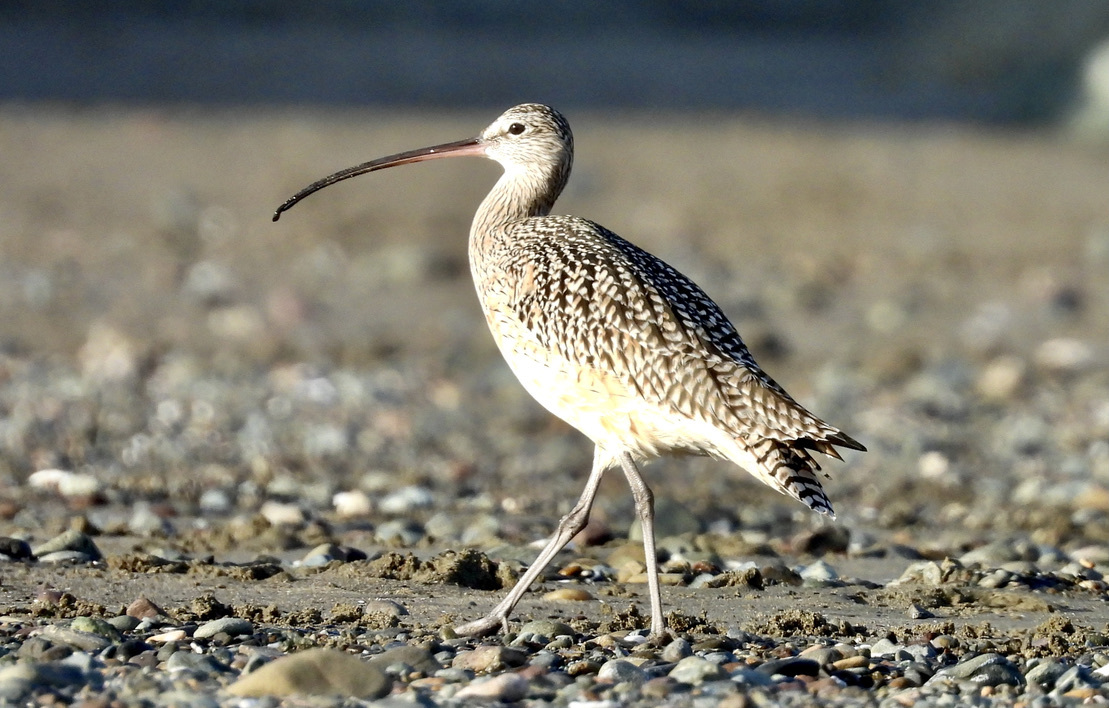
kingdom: Animalia
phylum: Chordata
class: Aves
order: Charadriiformes
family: Scolopacidae
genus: Numenius
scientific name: Numenius americanus
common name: Long-billed curlew
